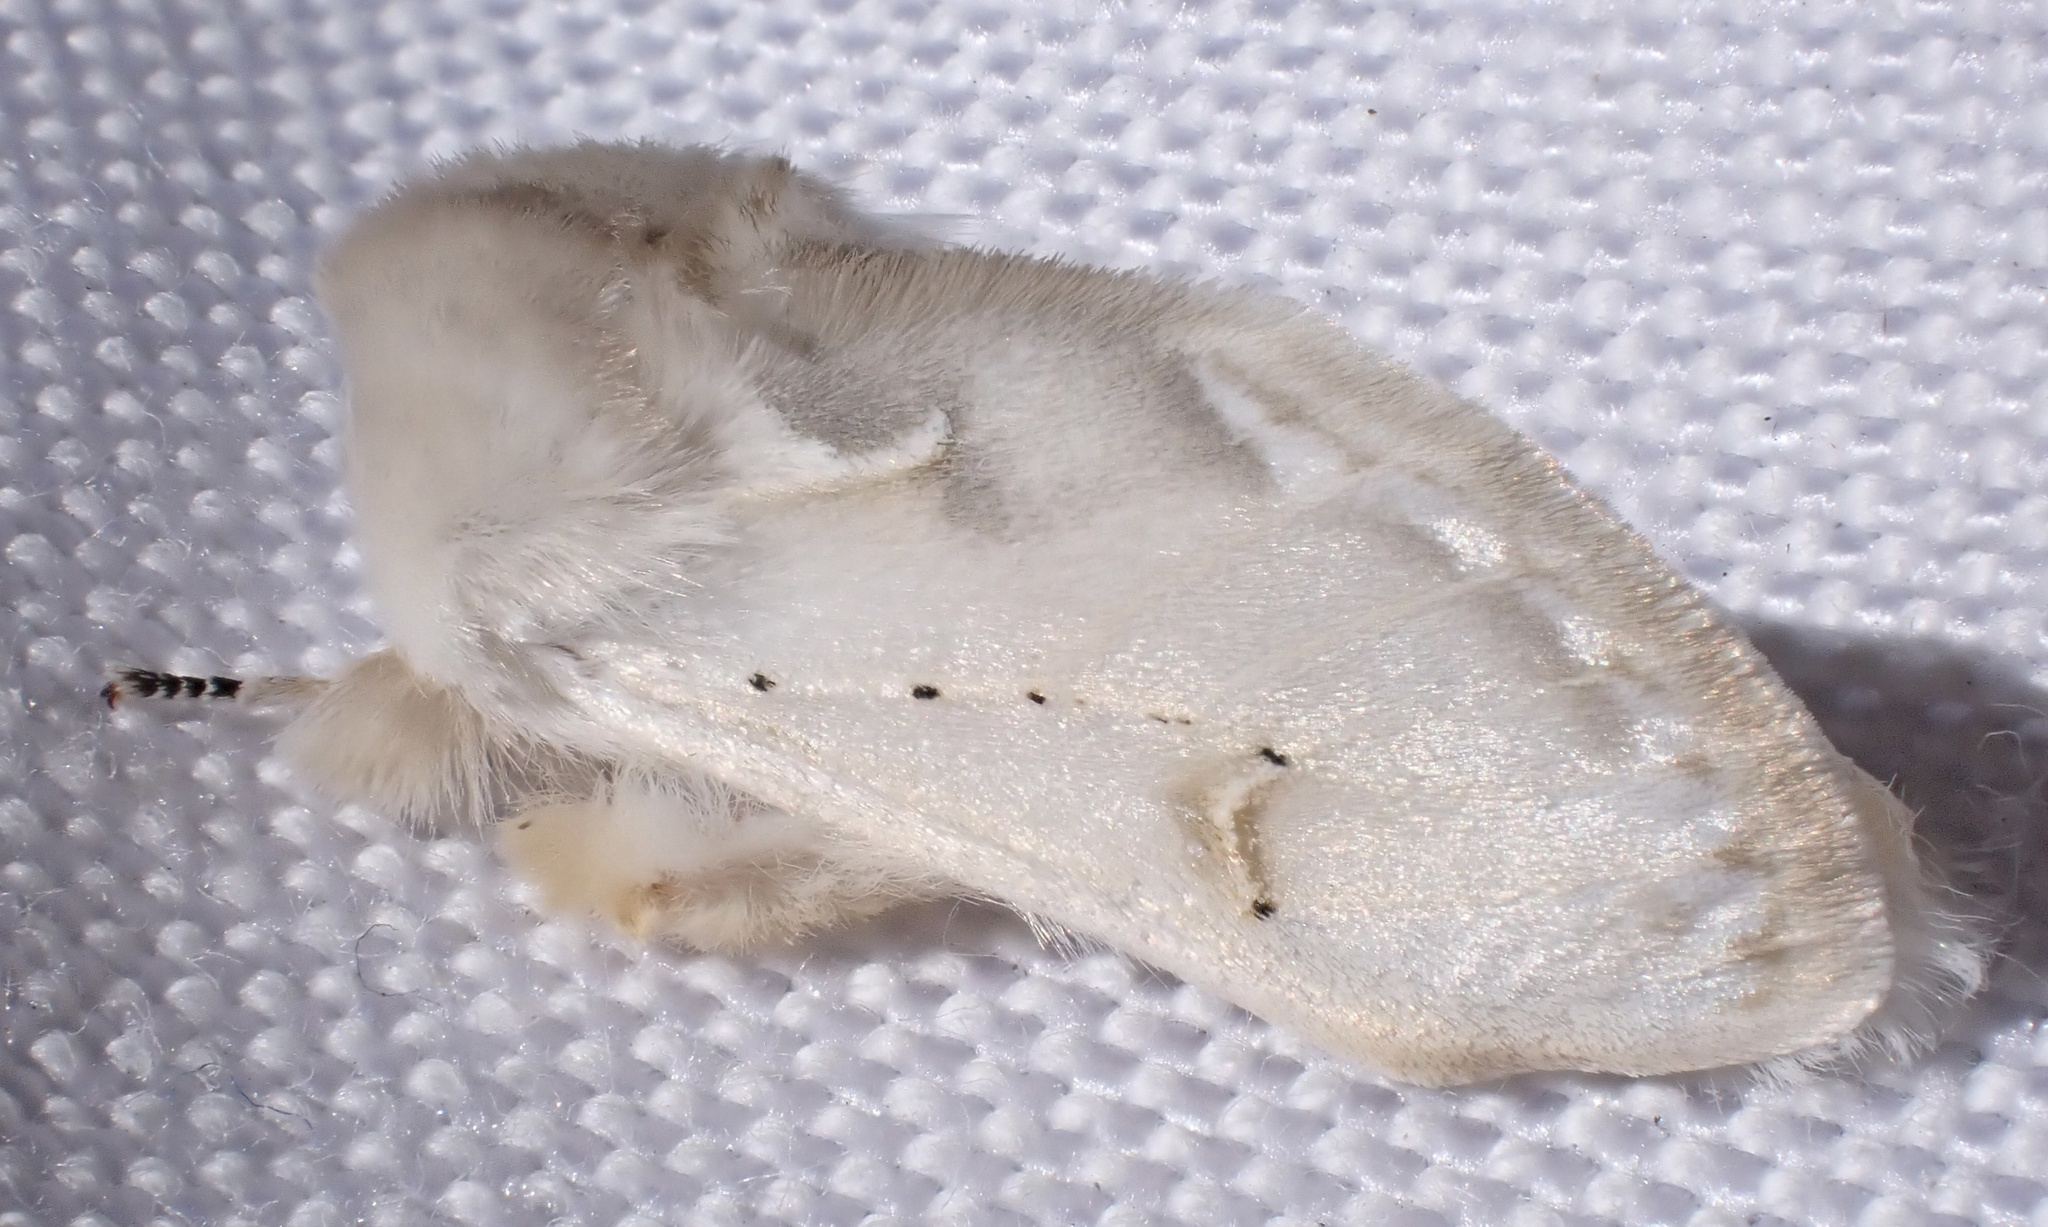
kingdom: Animalia
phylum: Arthropoda
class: Insecta
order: Lepidoptera
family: Erebidae
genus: Naroma
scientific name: Naroma varipes
